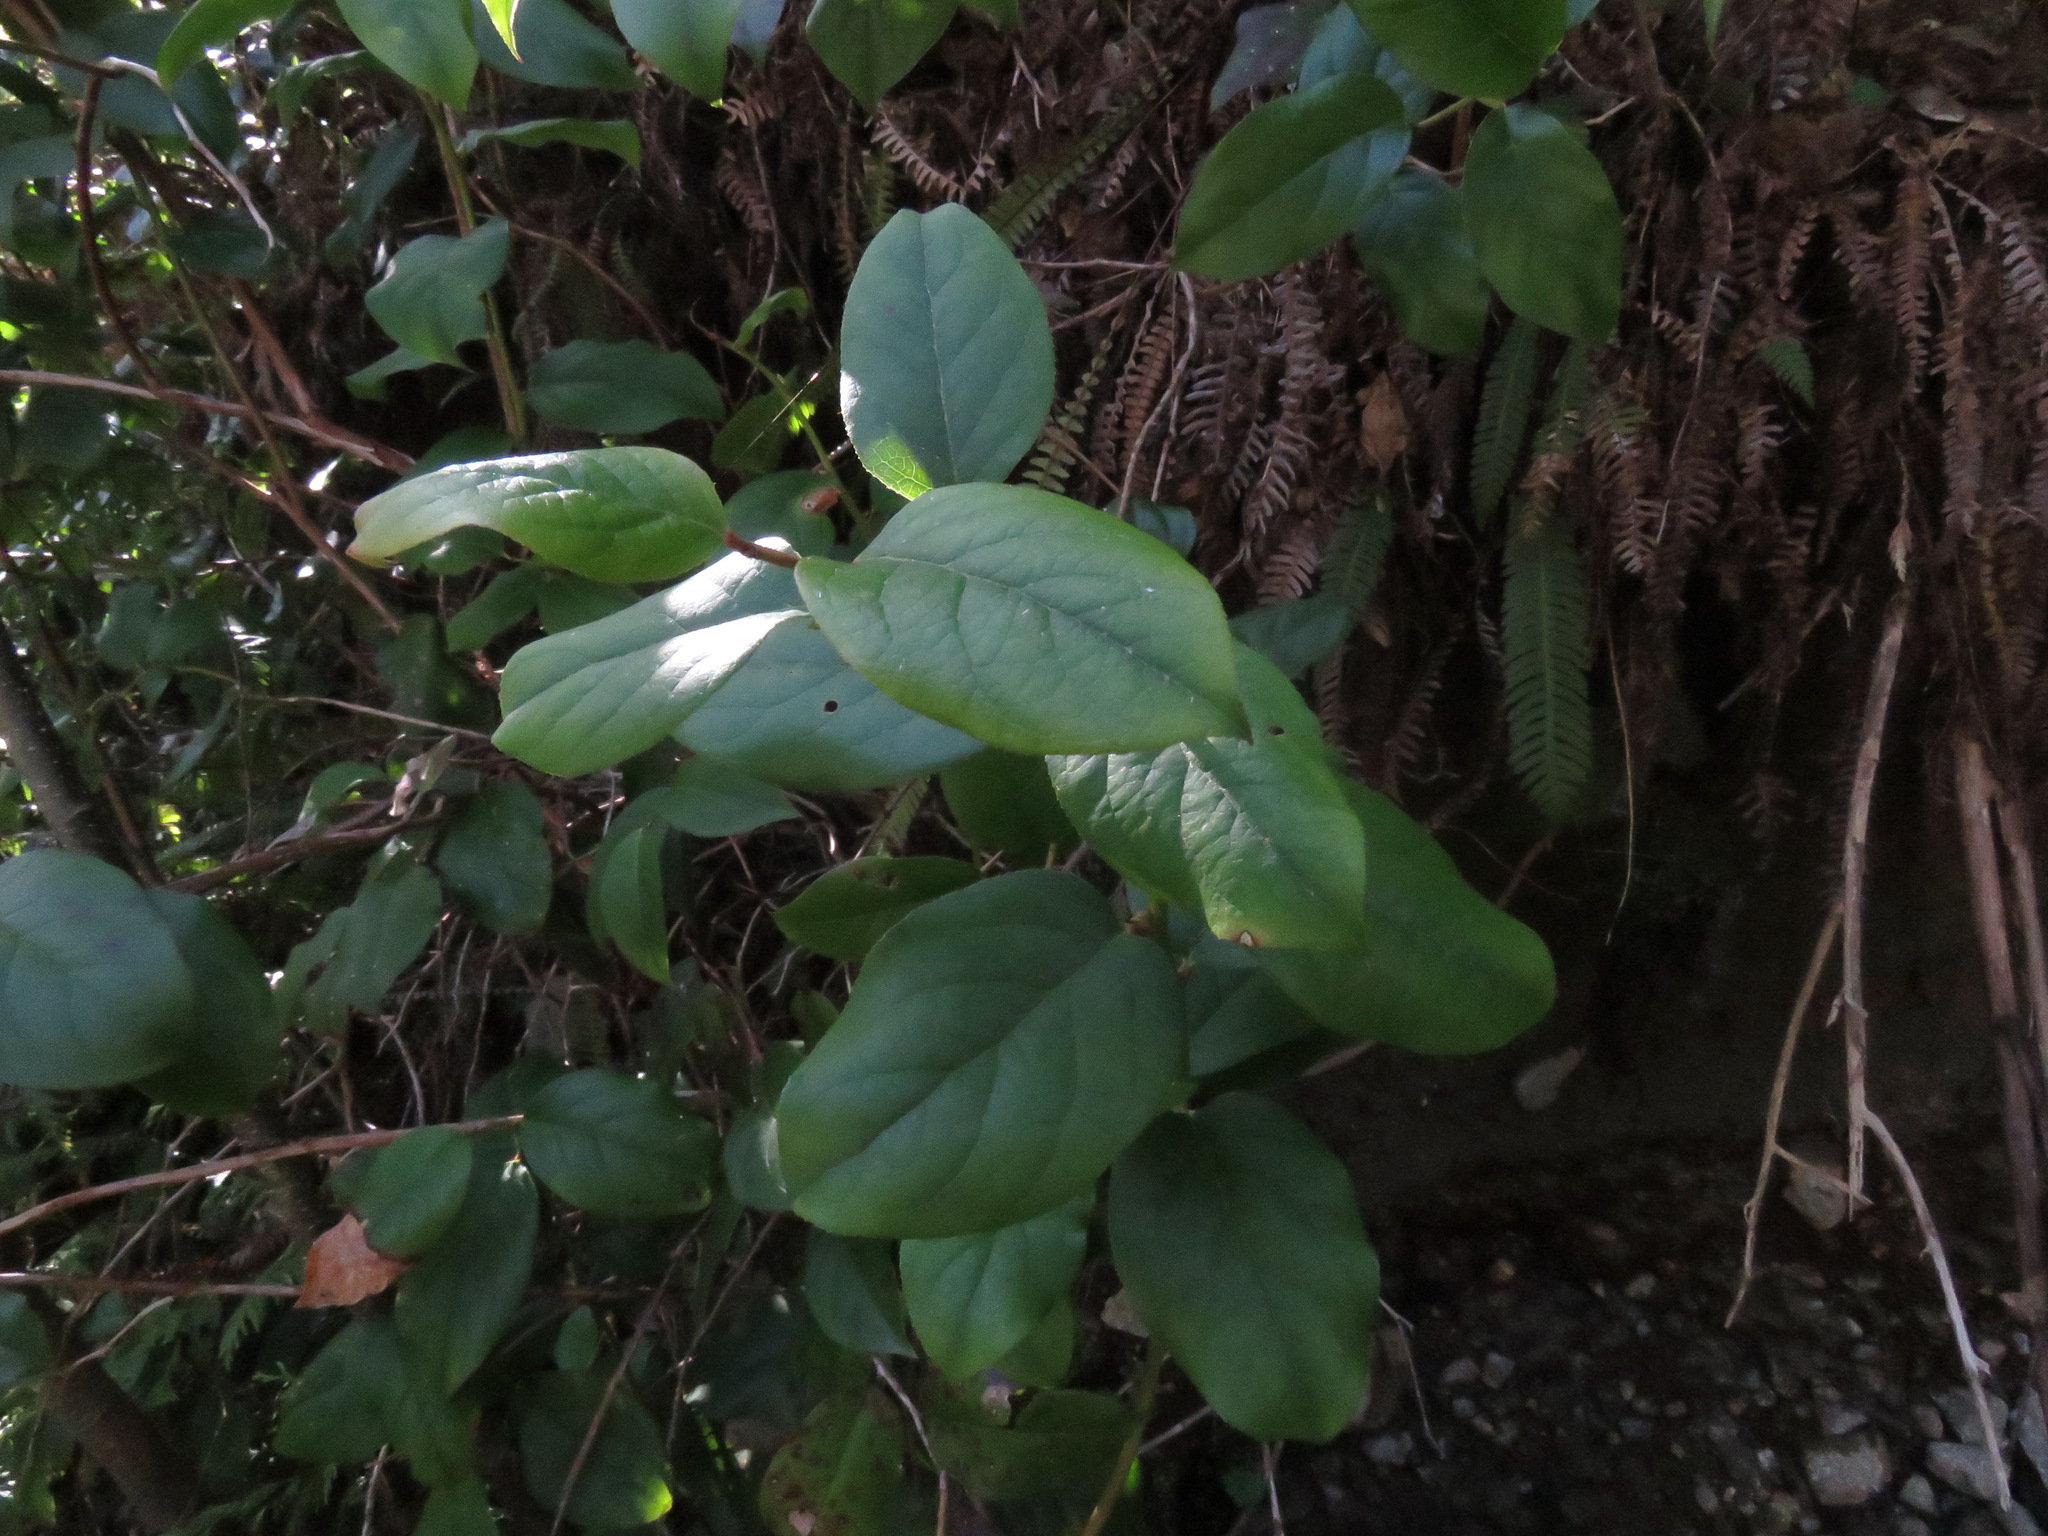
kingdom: Plantae
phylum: Tracheophyta
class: Magnoliopsida
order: Ericales
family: Ericaceae
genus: Gaultheria
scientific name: Gaultheria shallon
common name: Shallon
